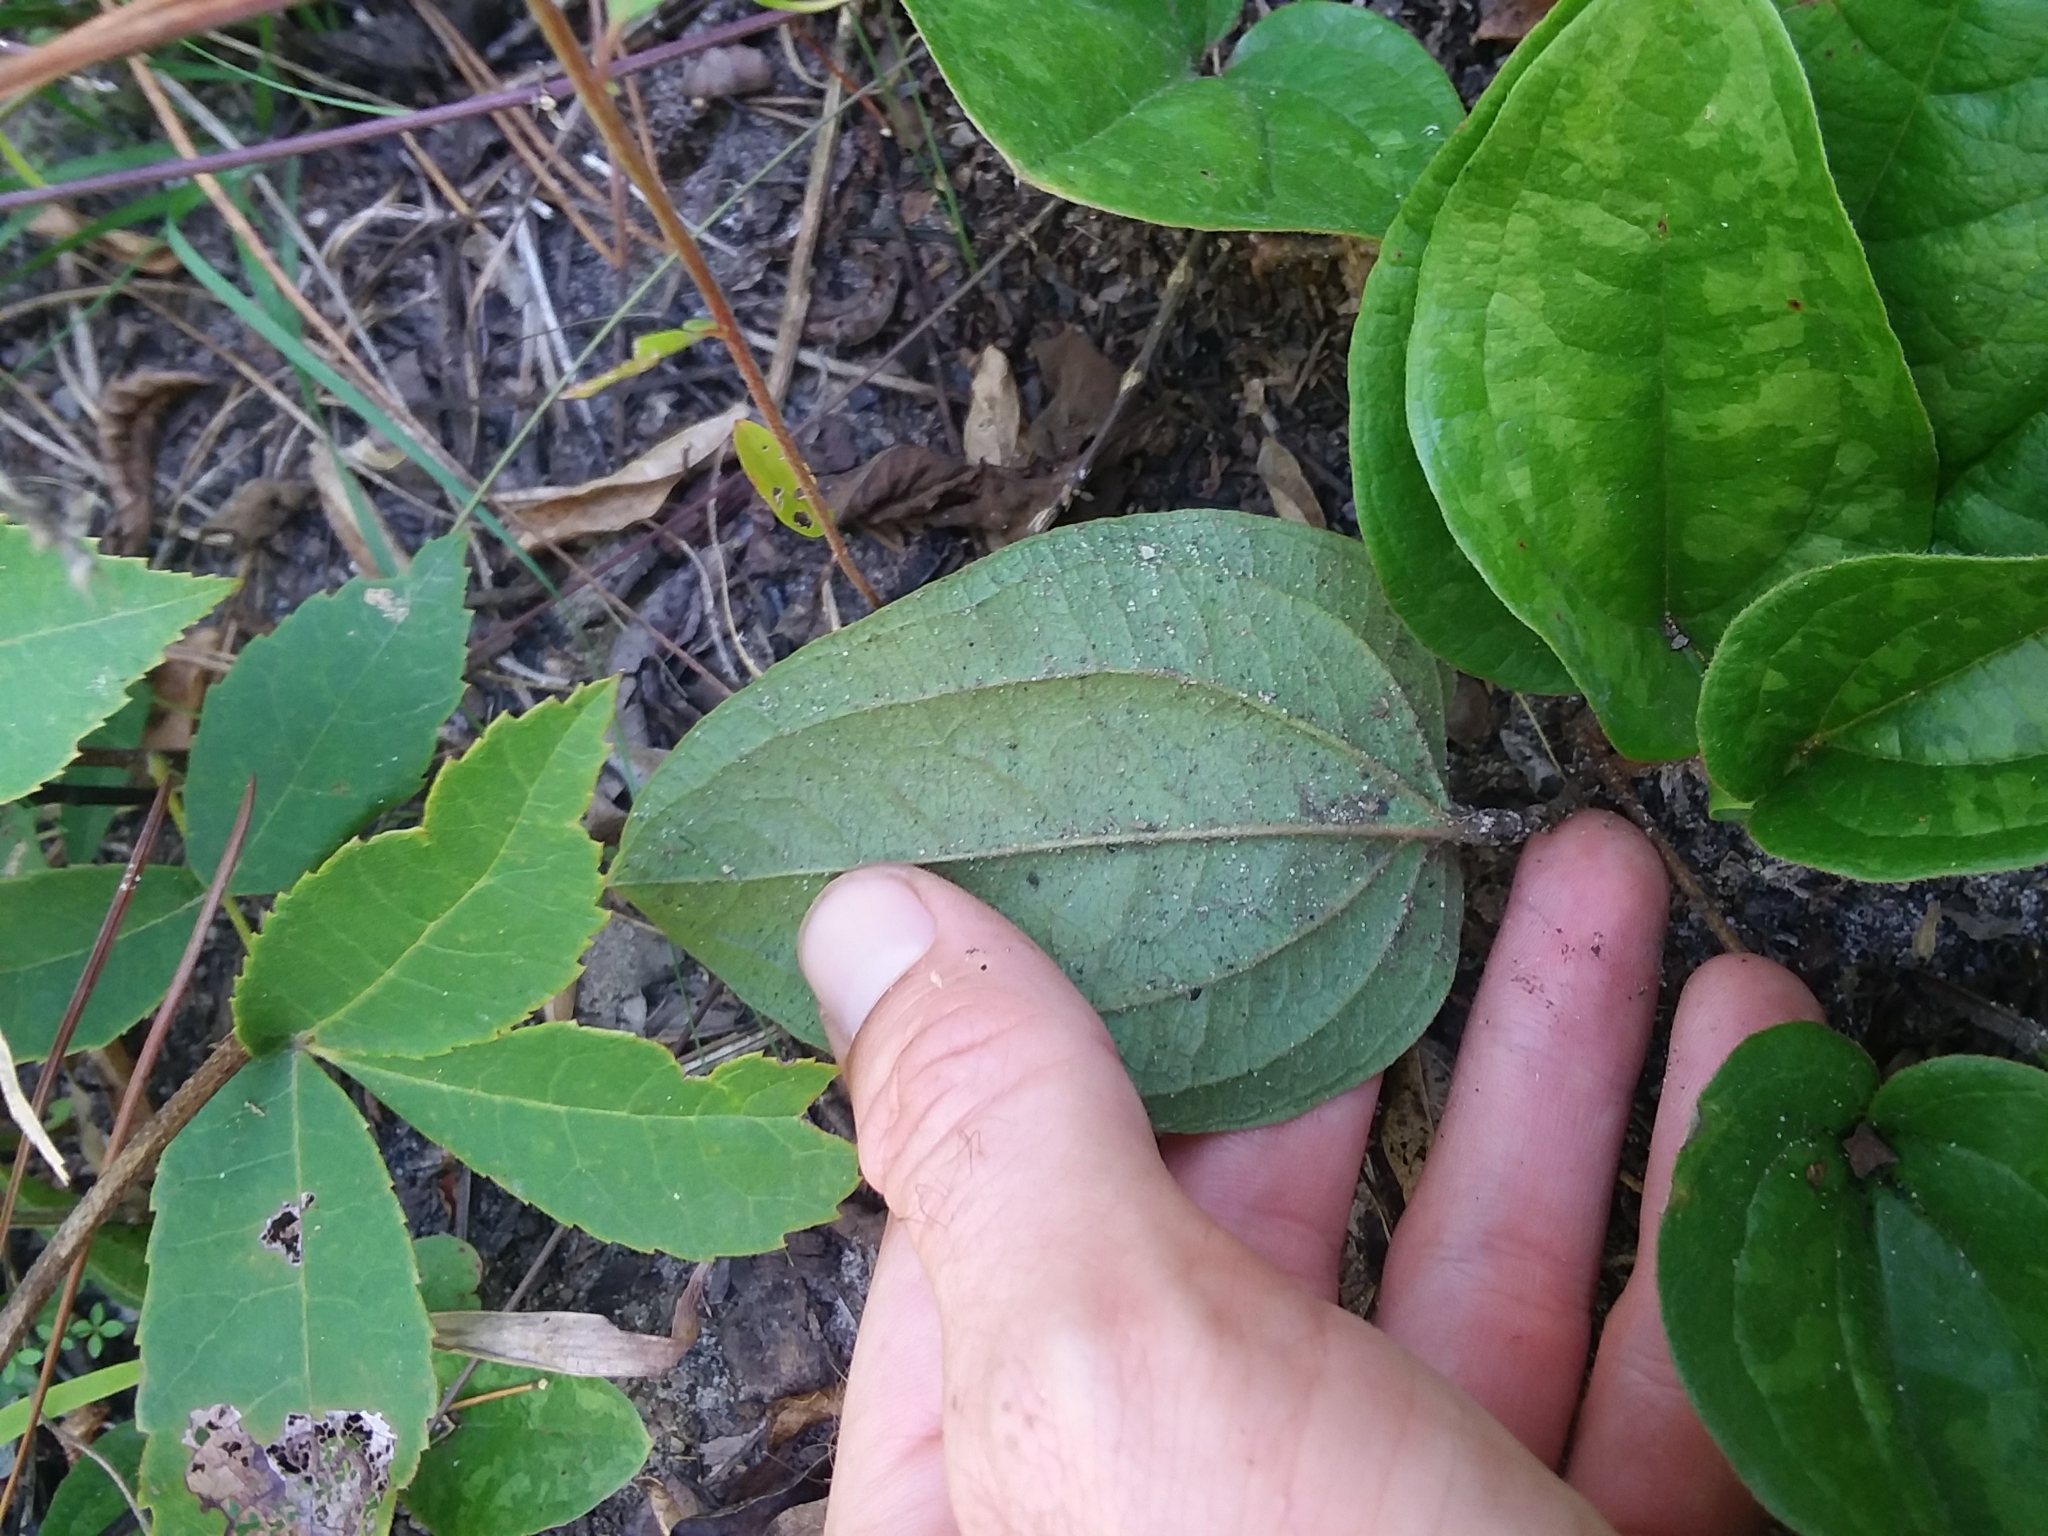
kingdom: Plantae
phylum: Tracheophyta
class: Liliopsida
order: Liliales
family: Smilacaceae
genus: Smilax
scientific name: Smilax pumila
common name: Sarsaparilla-vine
